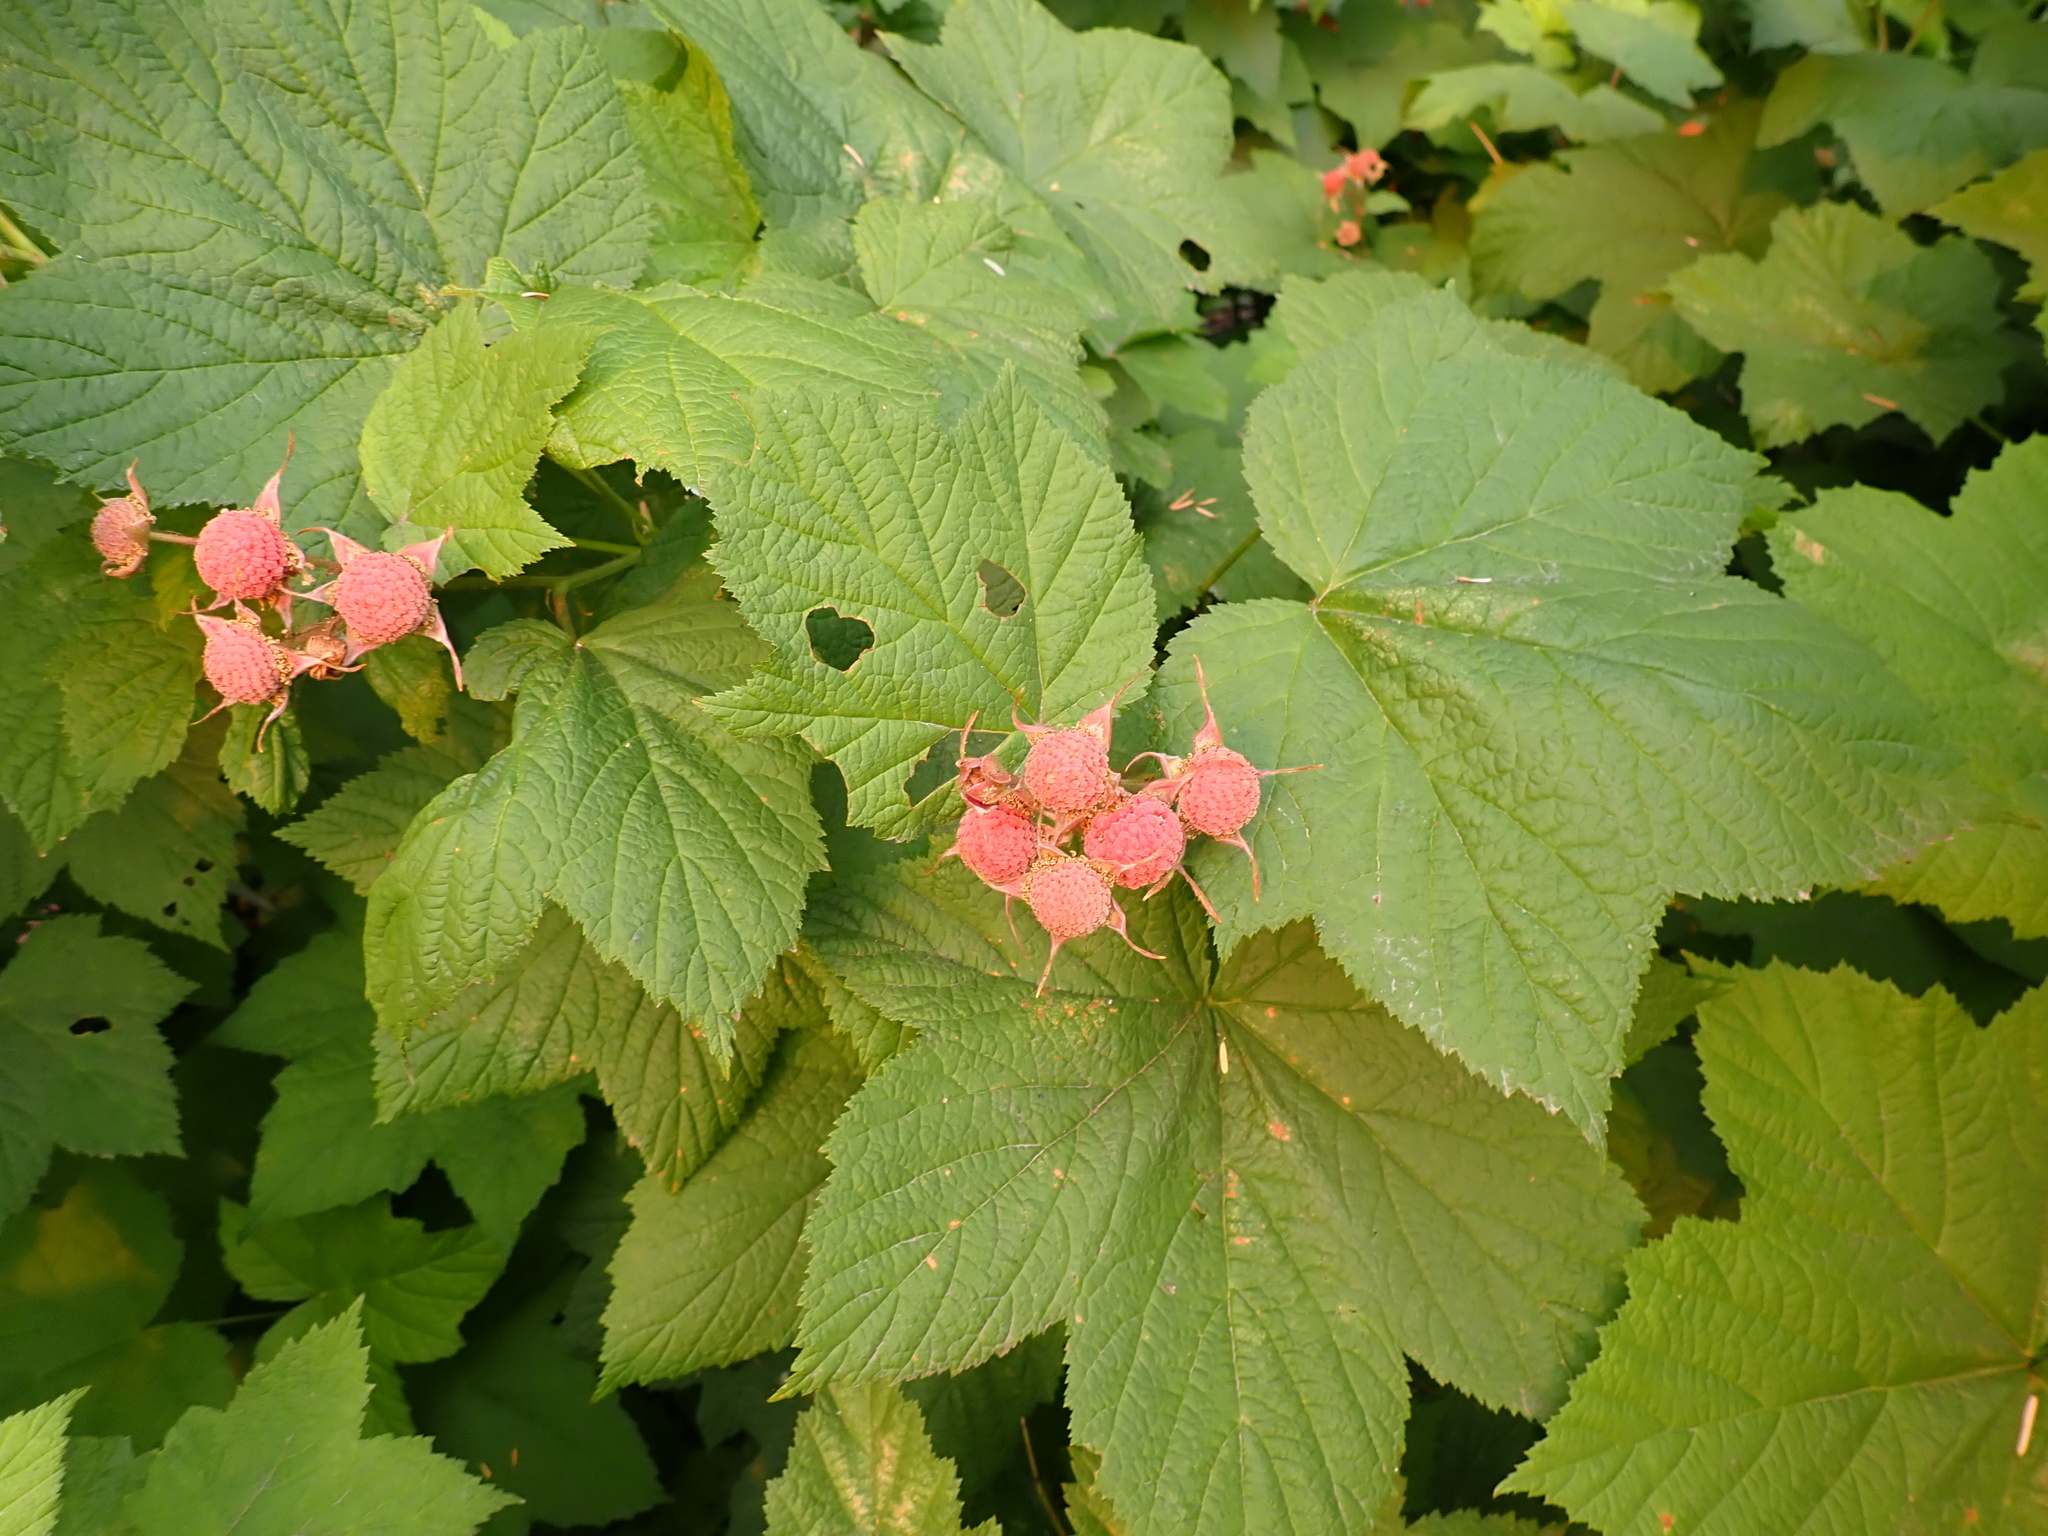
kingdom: Plantae
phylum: Tracheophyta
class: Magnoliopsida
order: Rosales
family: Rosaceae
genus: Rubus
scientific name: Rubus parviflorus
